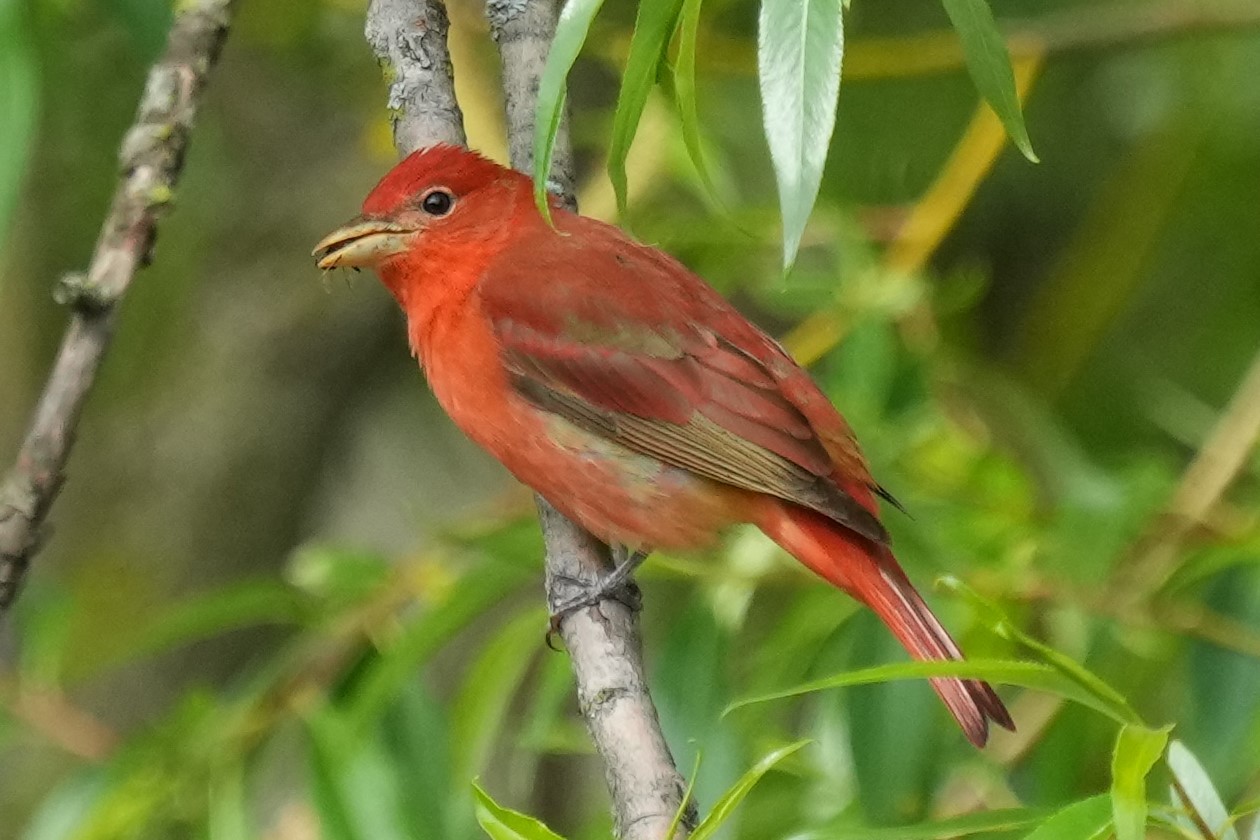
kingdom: Animalia
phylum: Chordata
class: Aves
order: Passeriformes
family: Cardinalidae
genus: Piranga
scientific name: Piranga rubra
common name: Summer tanager
